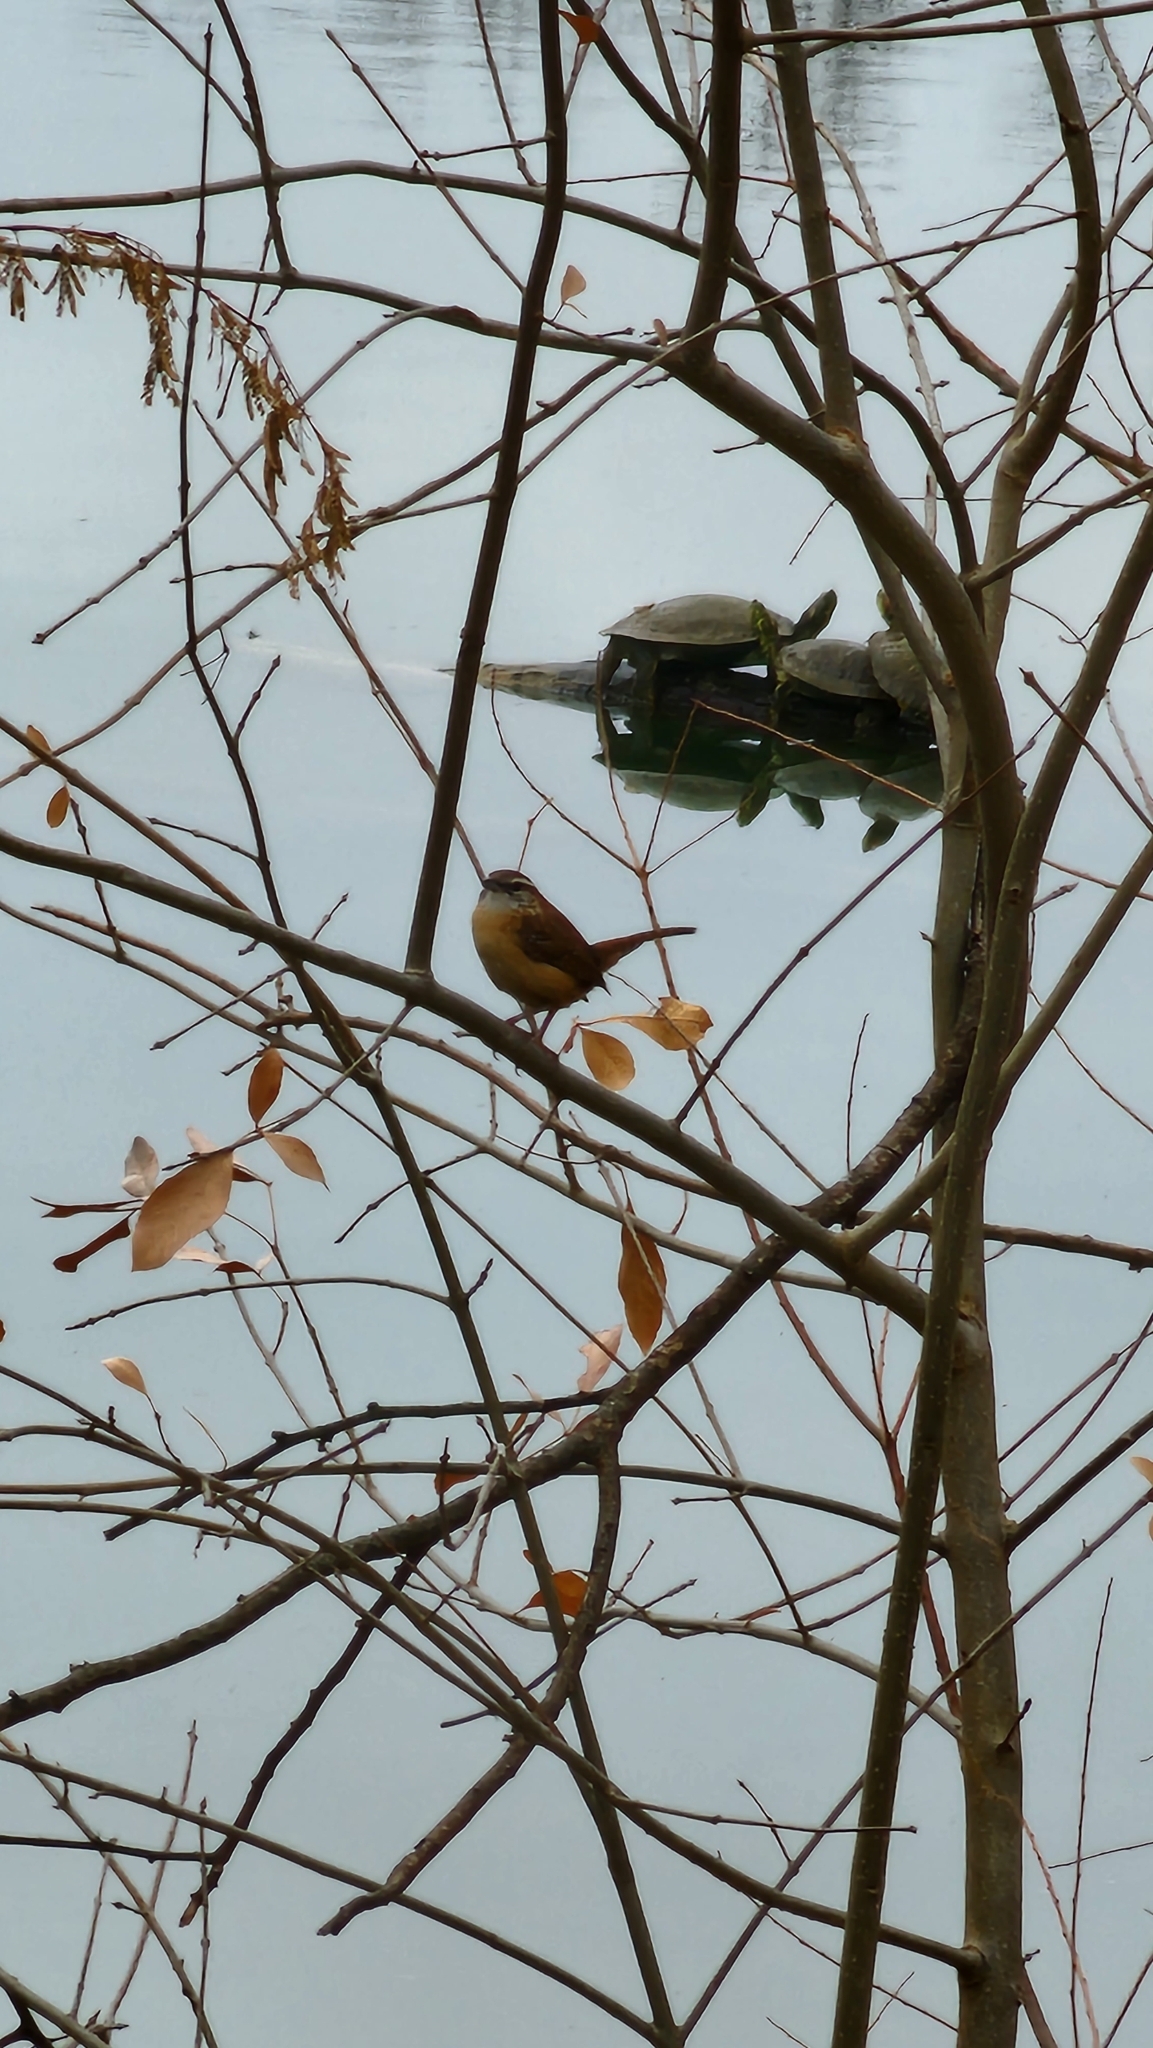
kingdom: Animalia
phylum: Chordata
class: Aves
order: Passeriformes
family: Troglodytidae
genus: Thryothorus
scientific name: Thryothorus ludovicianus
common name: Carolina wren
